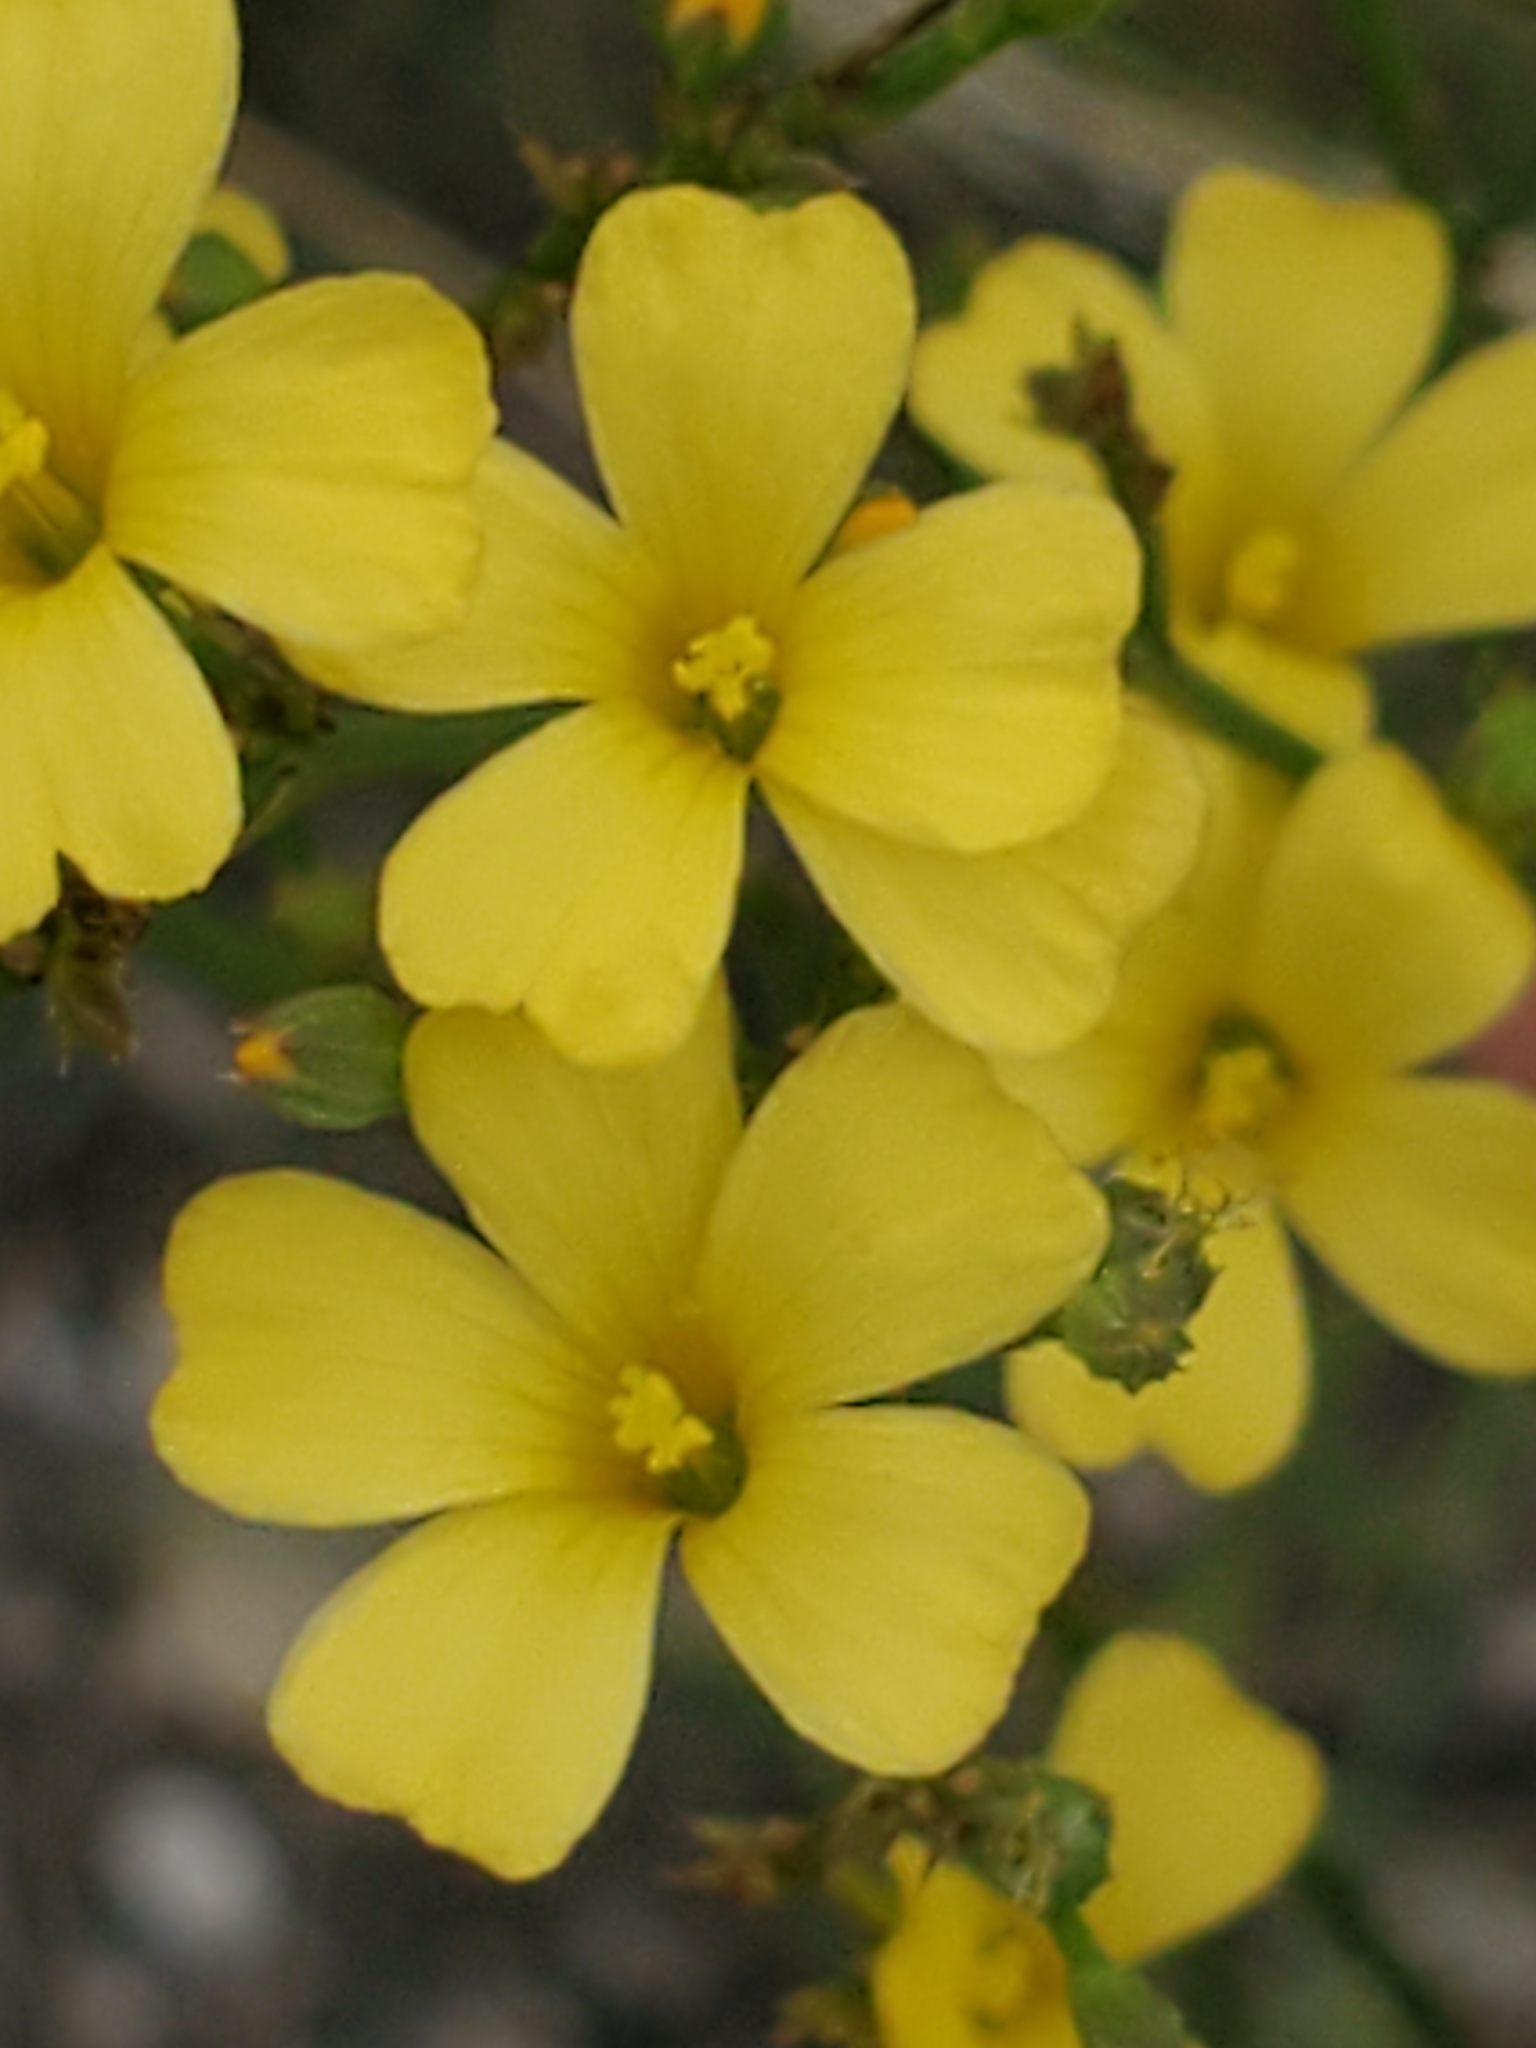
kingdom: Plantae
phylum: Tracheophyta
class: Magnoliopsida
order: Malpighiales
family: Linaceae
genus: Linum
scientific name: Linum rupestre
